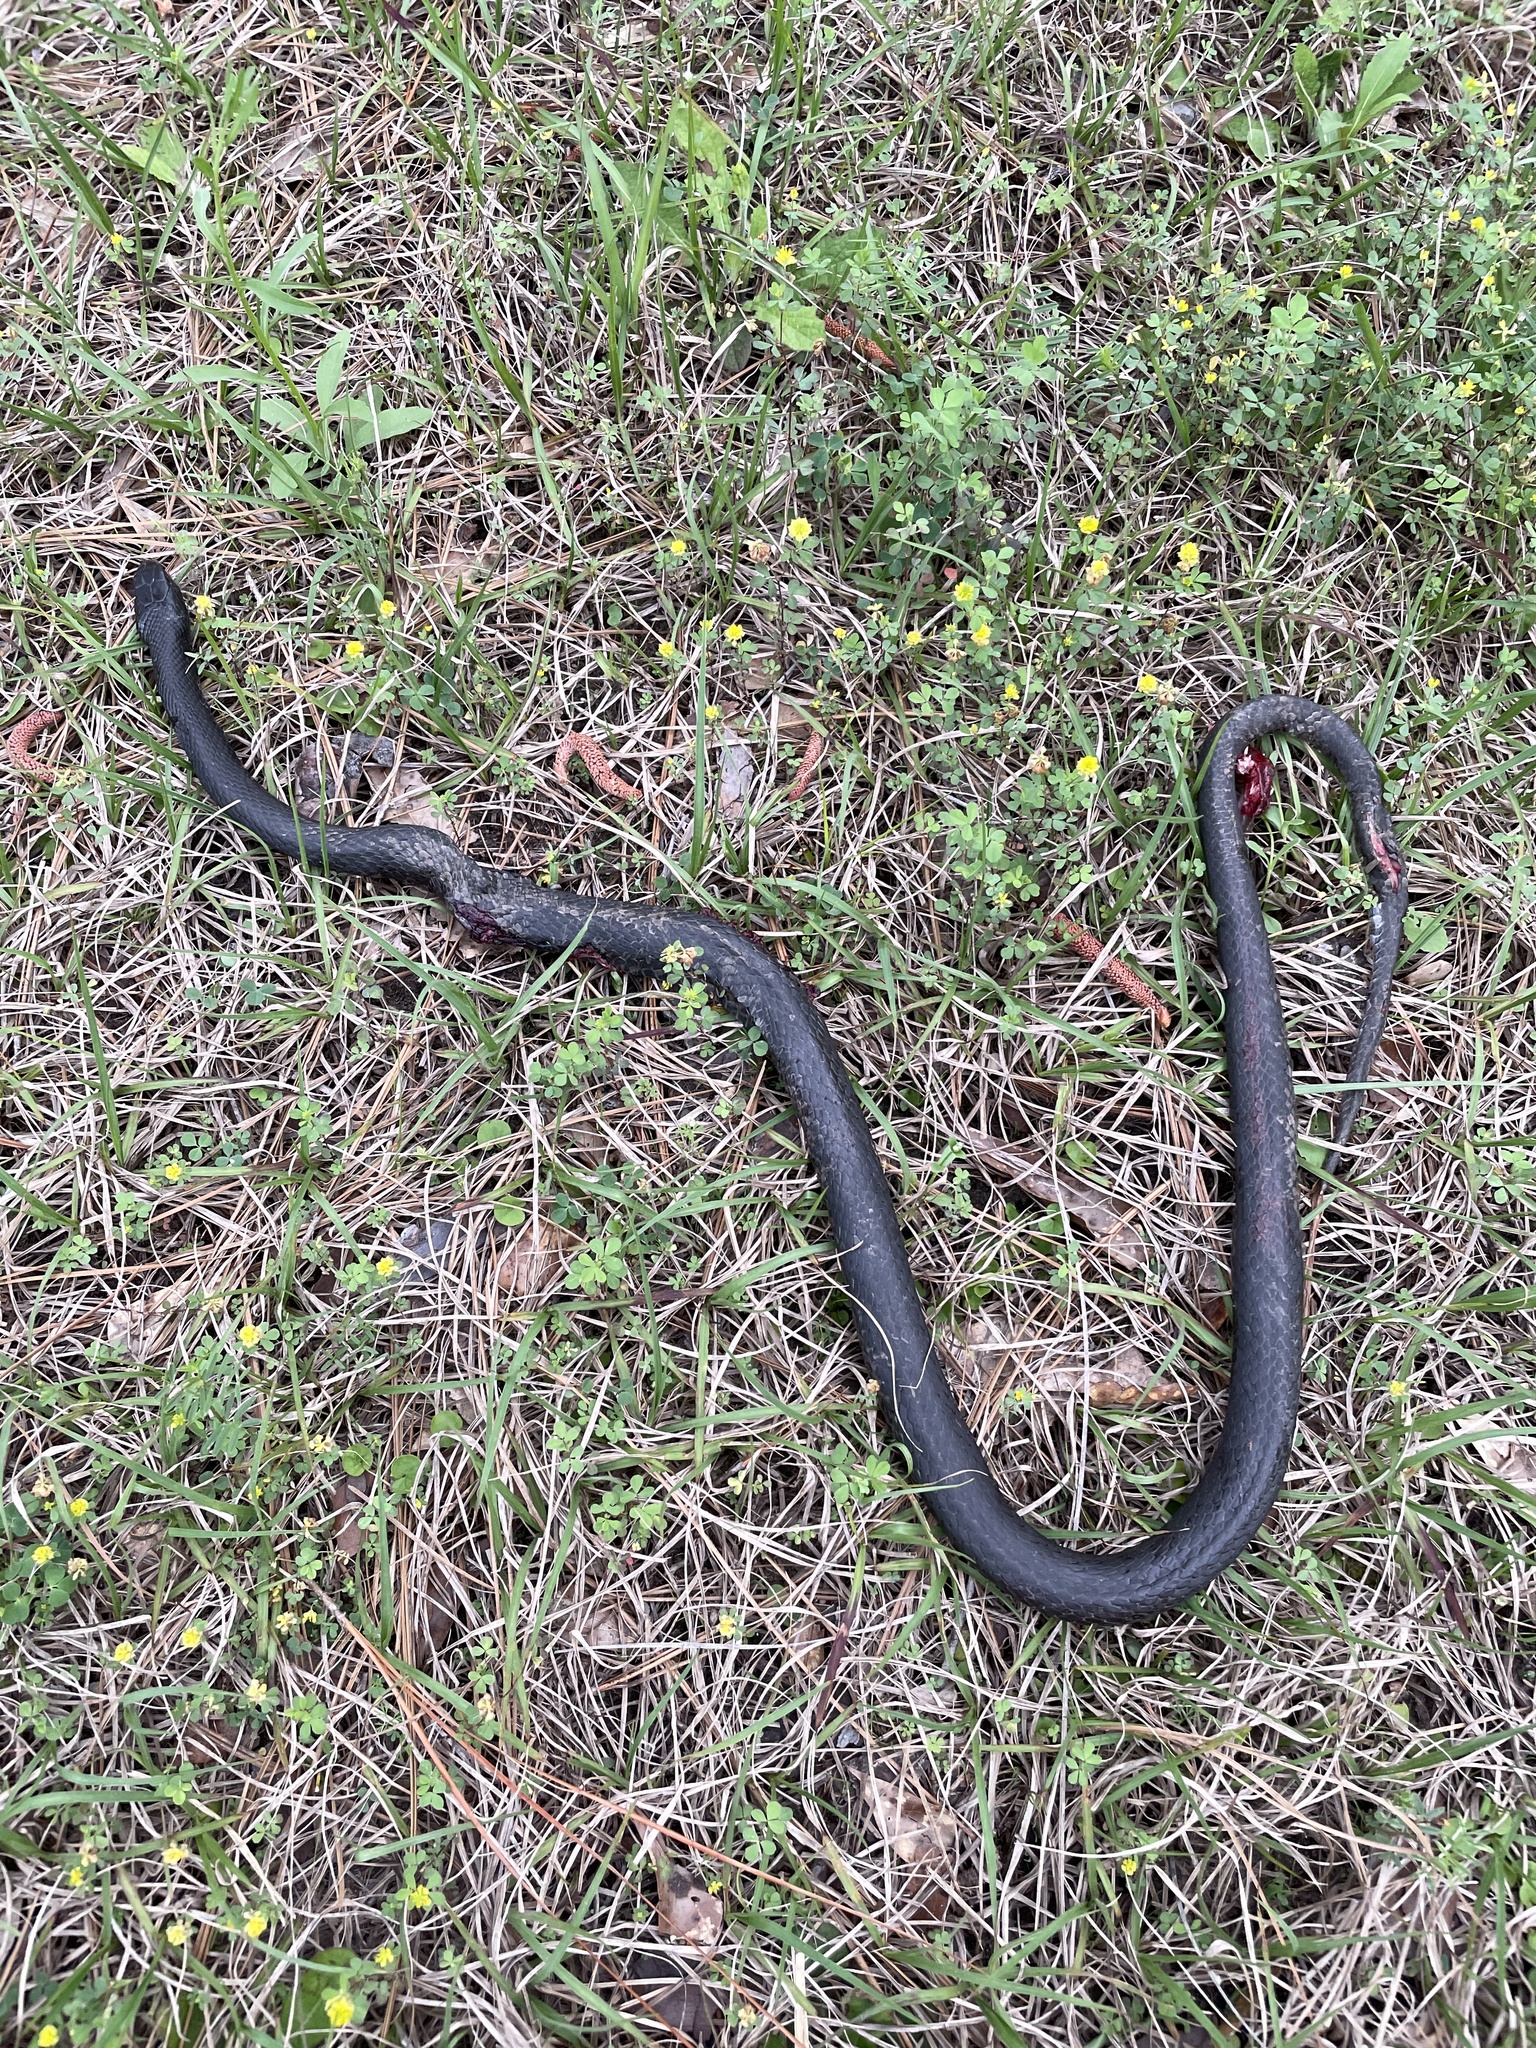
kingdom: Animalia
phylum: Chordata
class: Squamata
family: Colubridae
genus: Coluber
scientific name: Coluber constrictor
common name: Eastern racer
